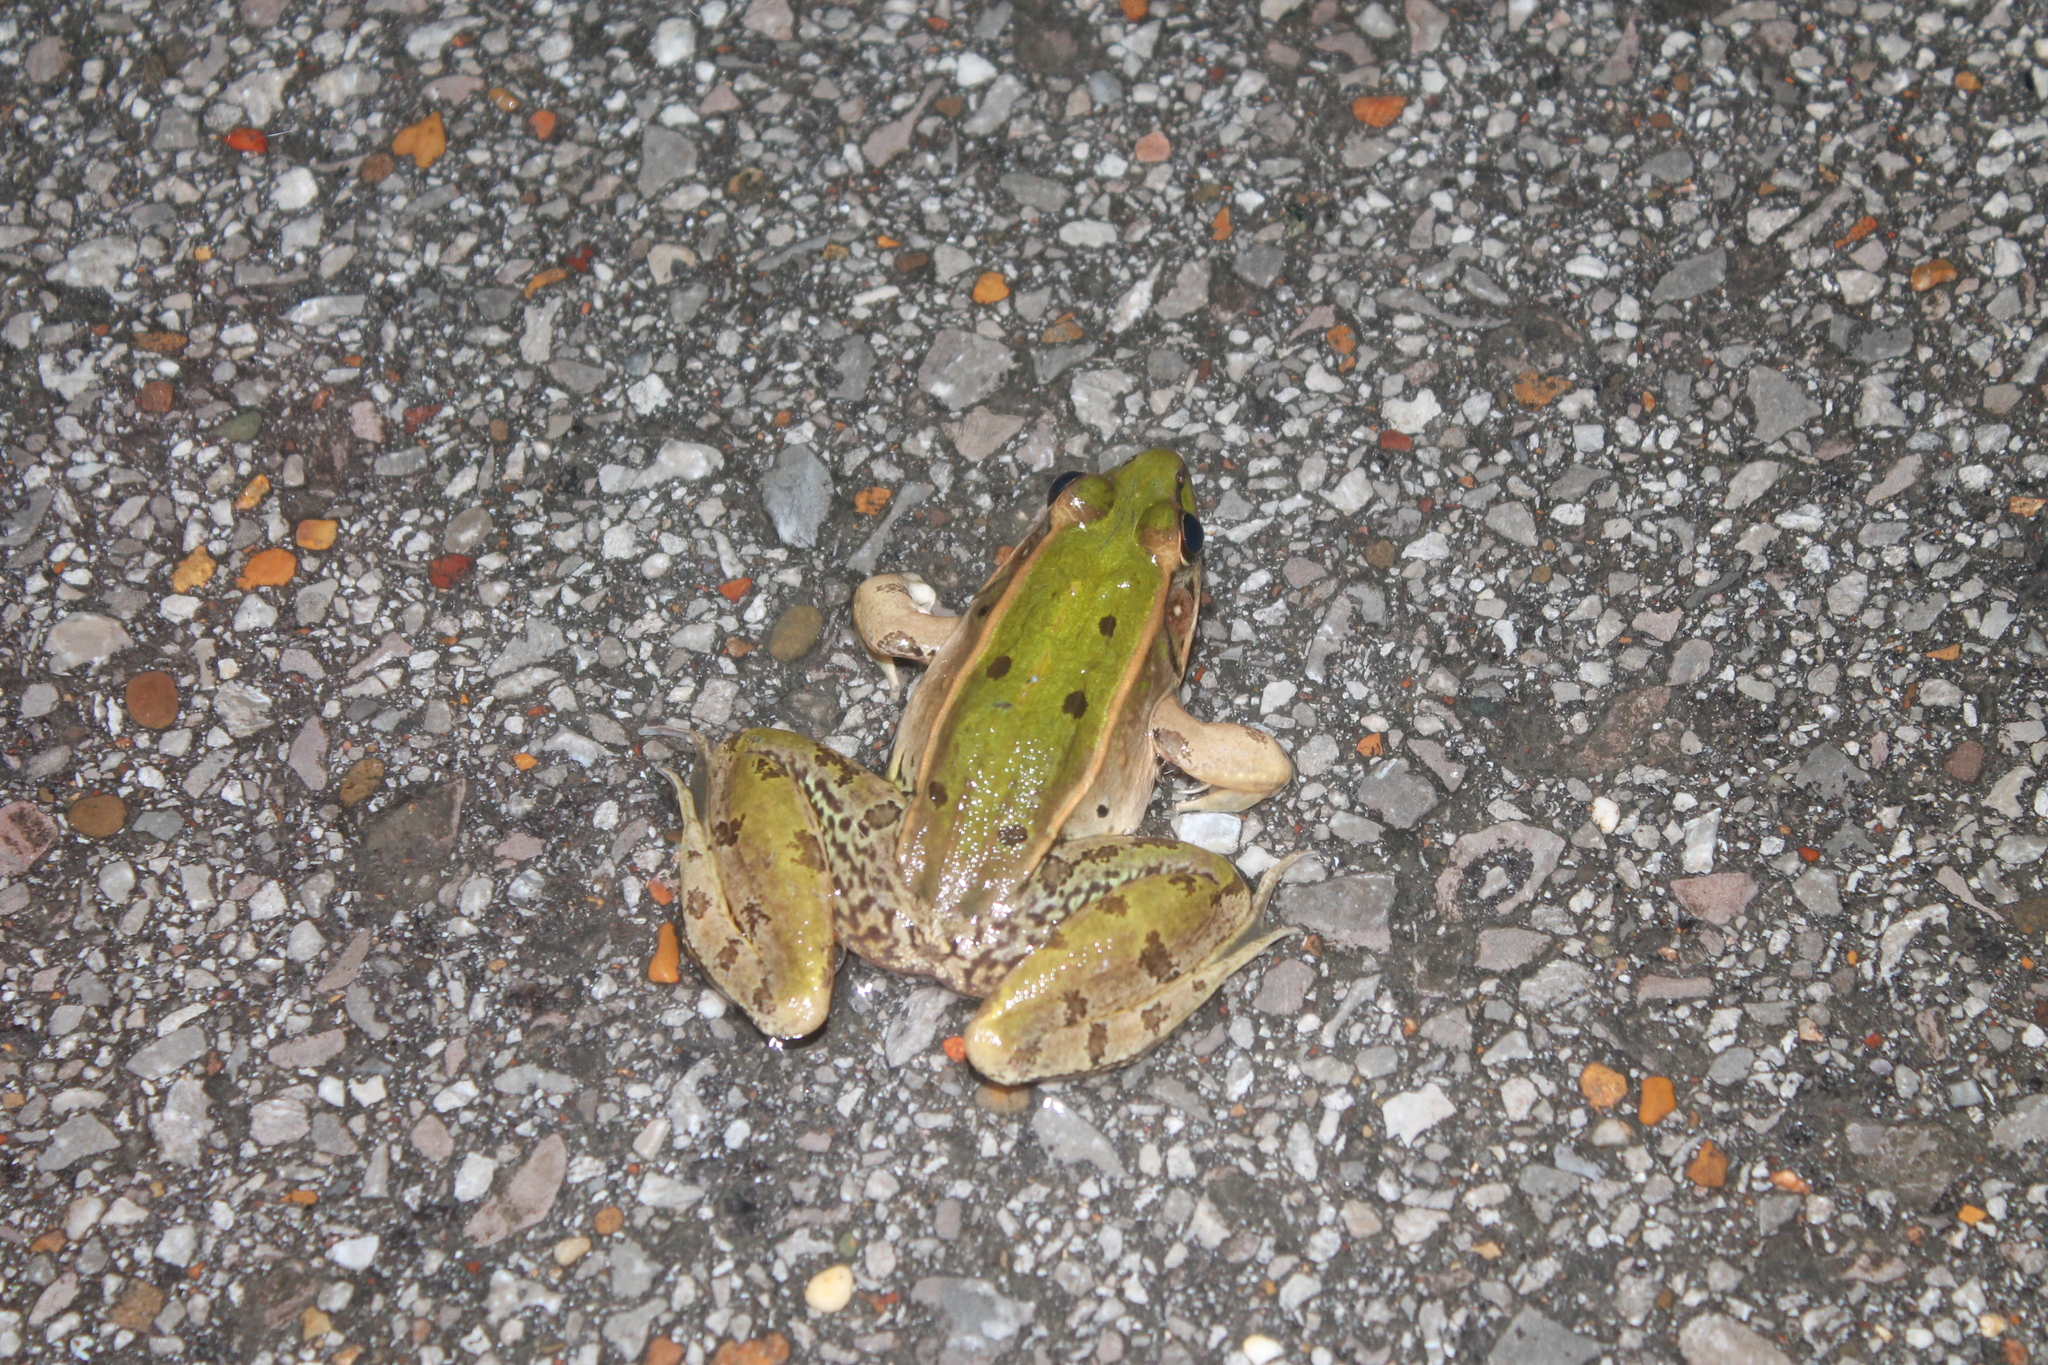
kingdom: Animalia
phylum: Chordata
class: Amphibia
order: Anura
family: Ranidae
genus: Lithobates
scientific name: Lithobates sphenocephalus
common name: Southern leopard frog
